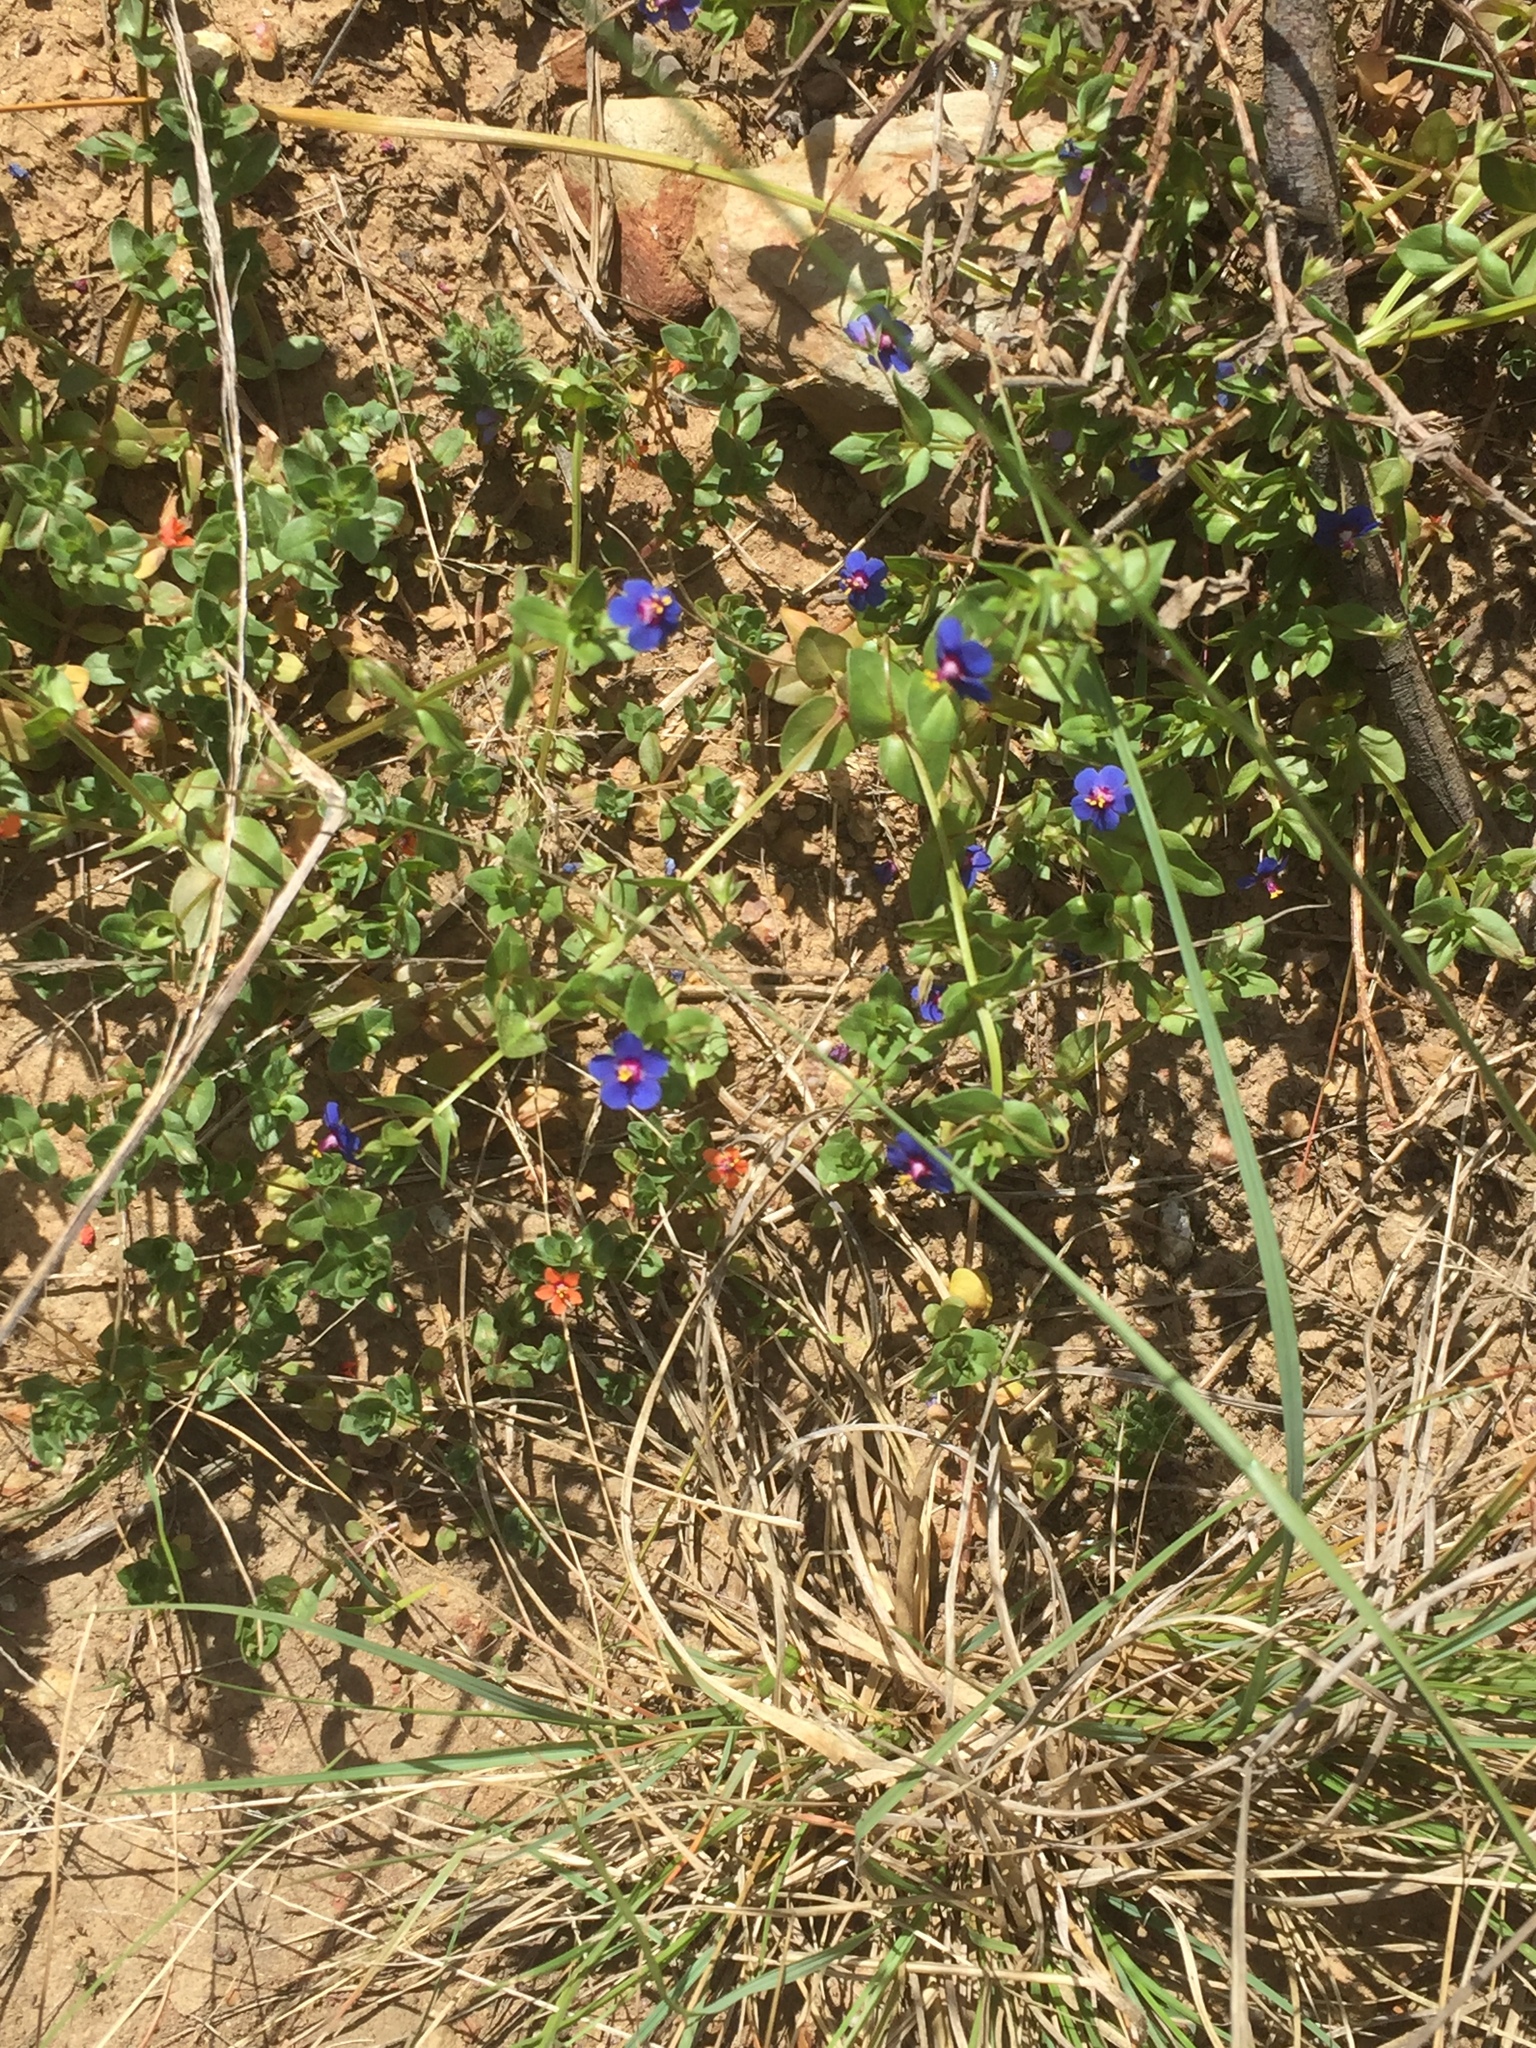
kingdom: Plantae
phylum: Tracheophyta
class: Magnoliopsida
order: Ericales
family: Primulaceae
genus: Lysimachia
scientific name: Lysimachia loeflingii
